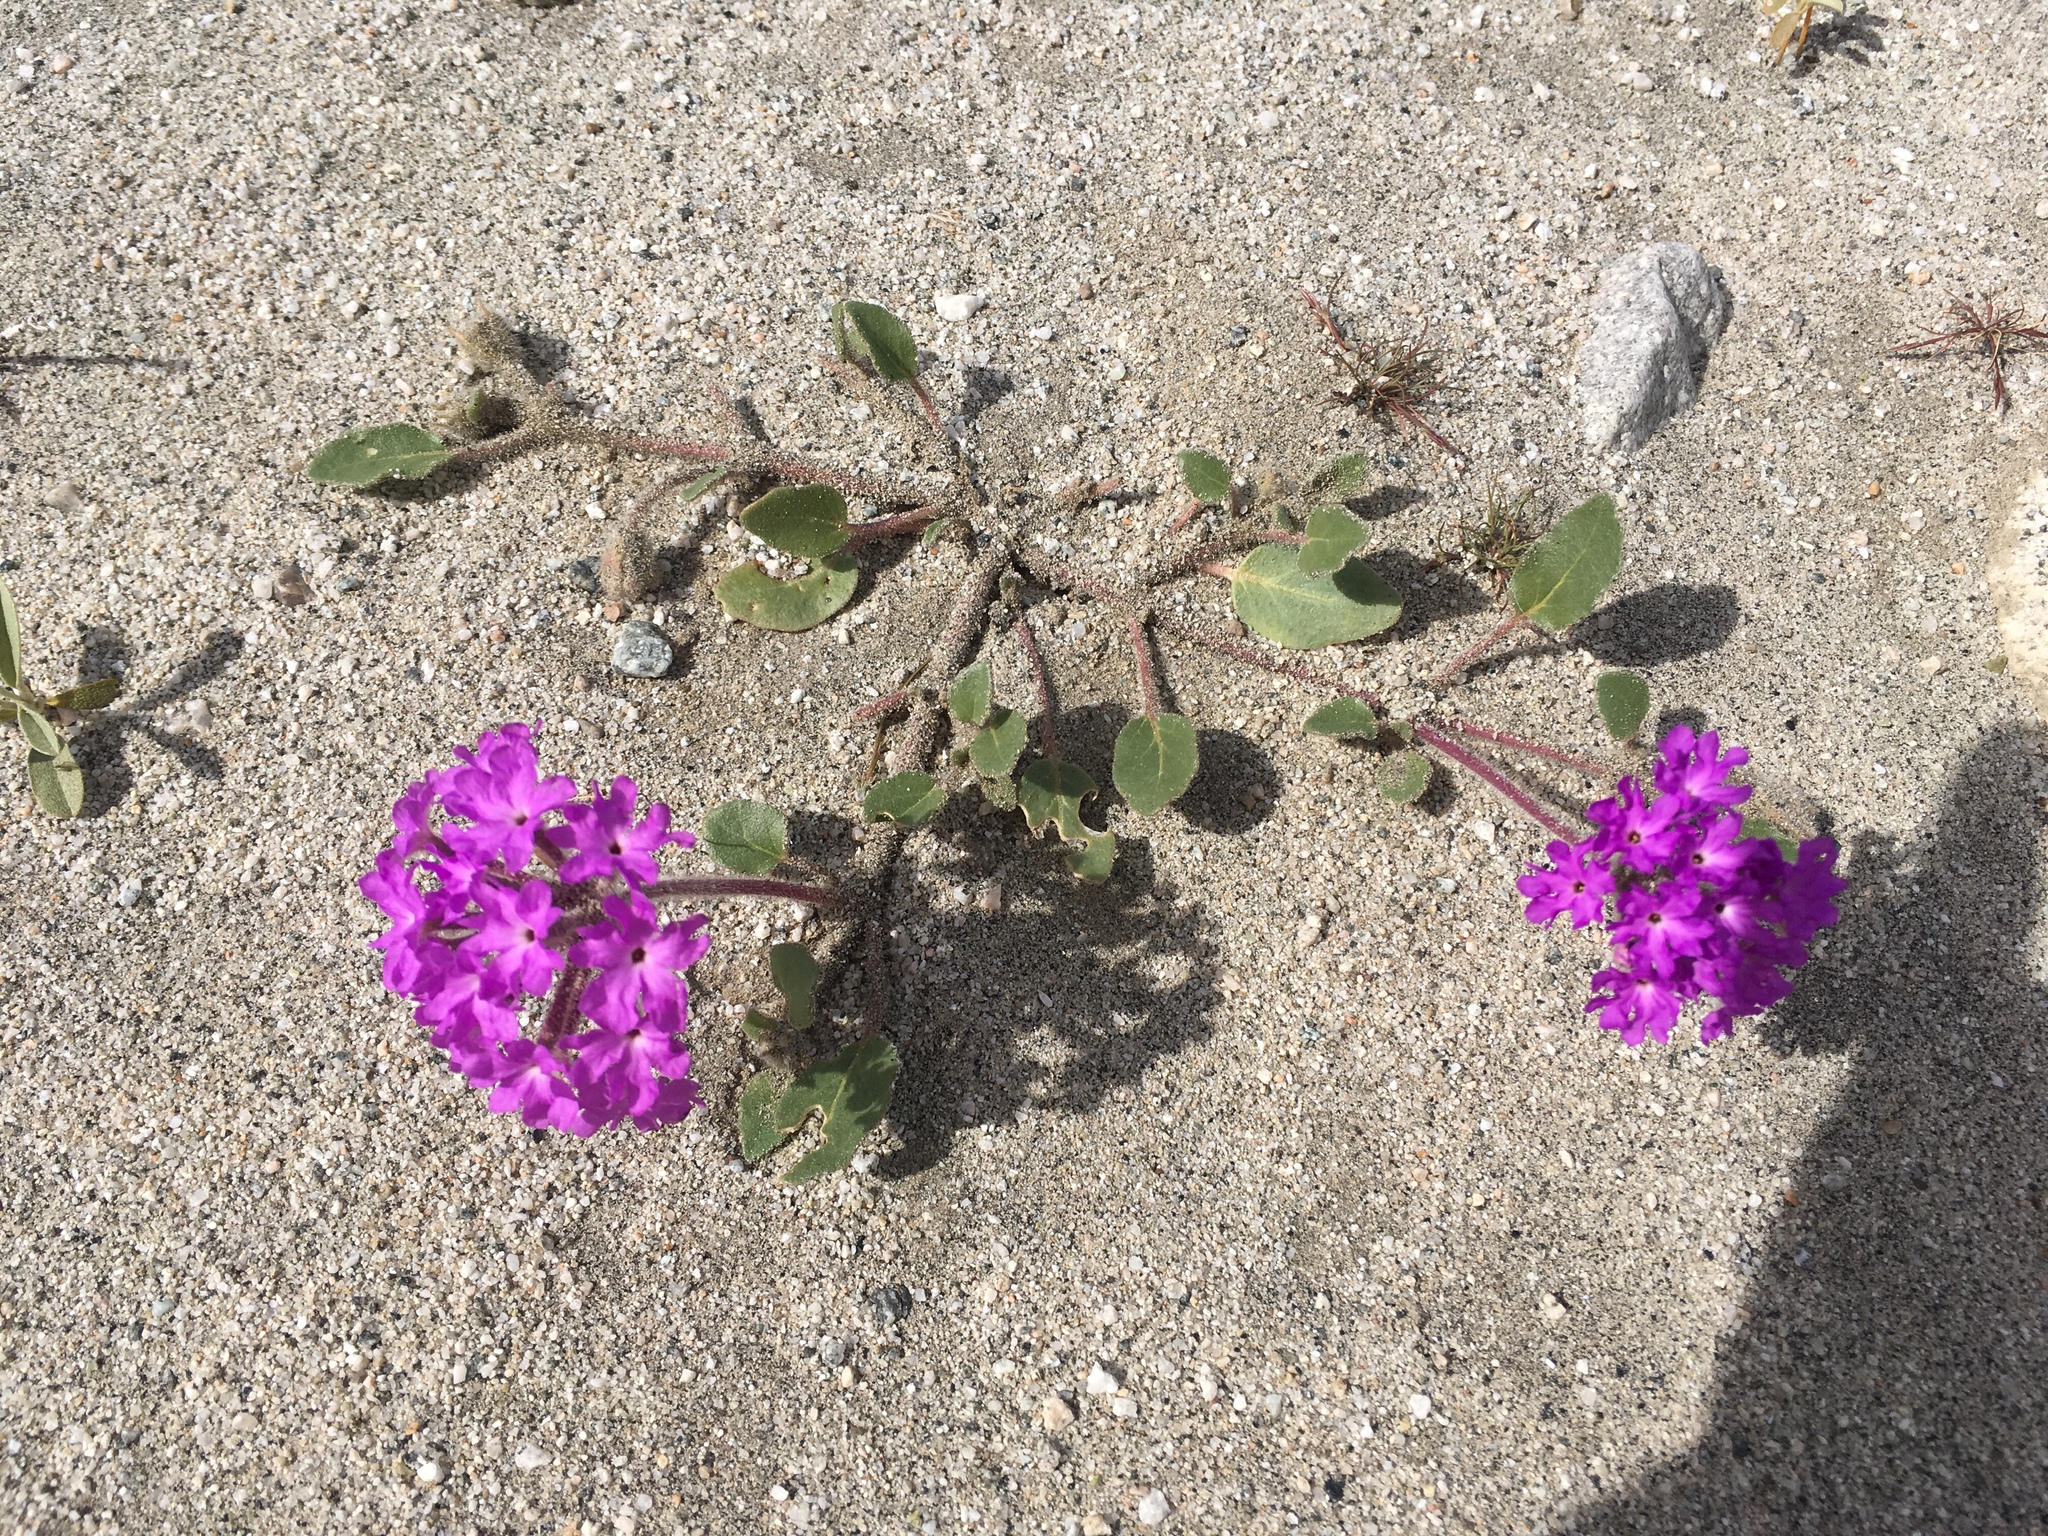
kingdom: Plantae
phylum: Tracheophyta
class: Magnoliopsida
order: Caryophyllales
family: Nyctaginaceae
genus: Abronia
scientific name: Abronia villosa
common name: Desert sand-verbena
